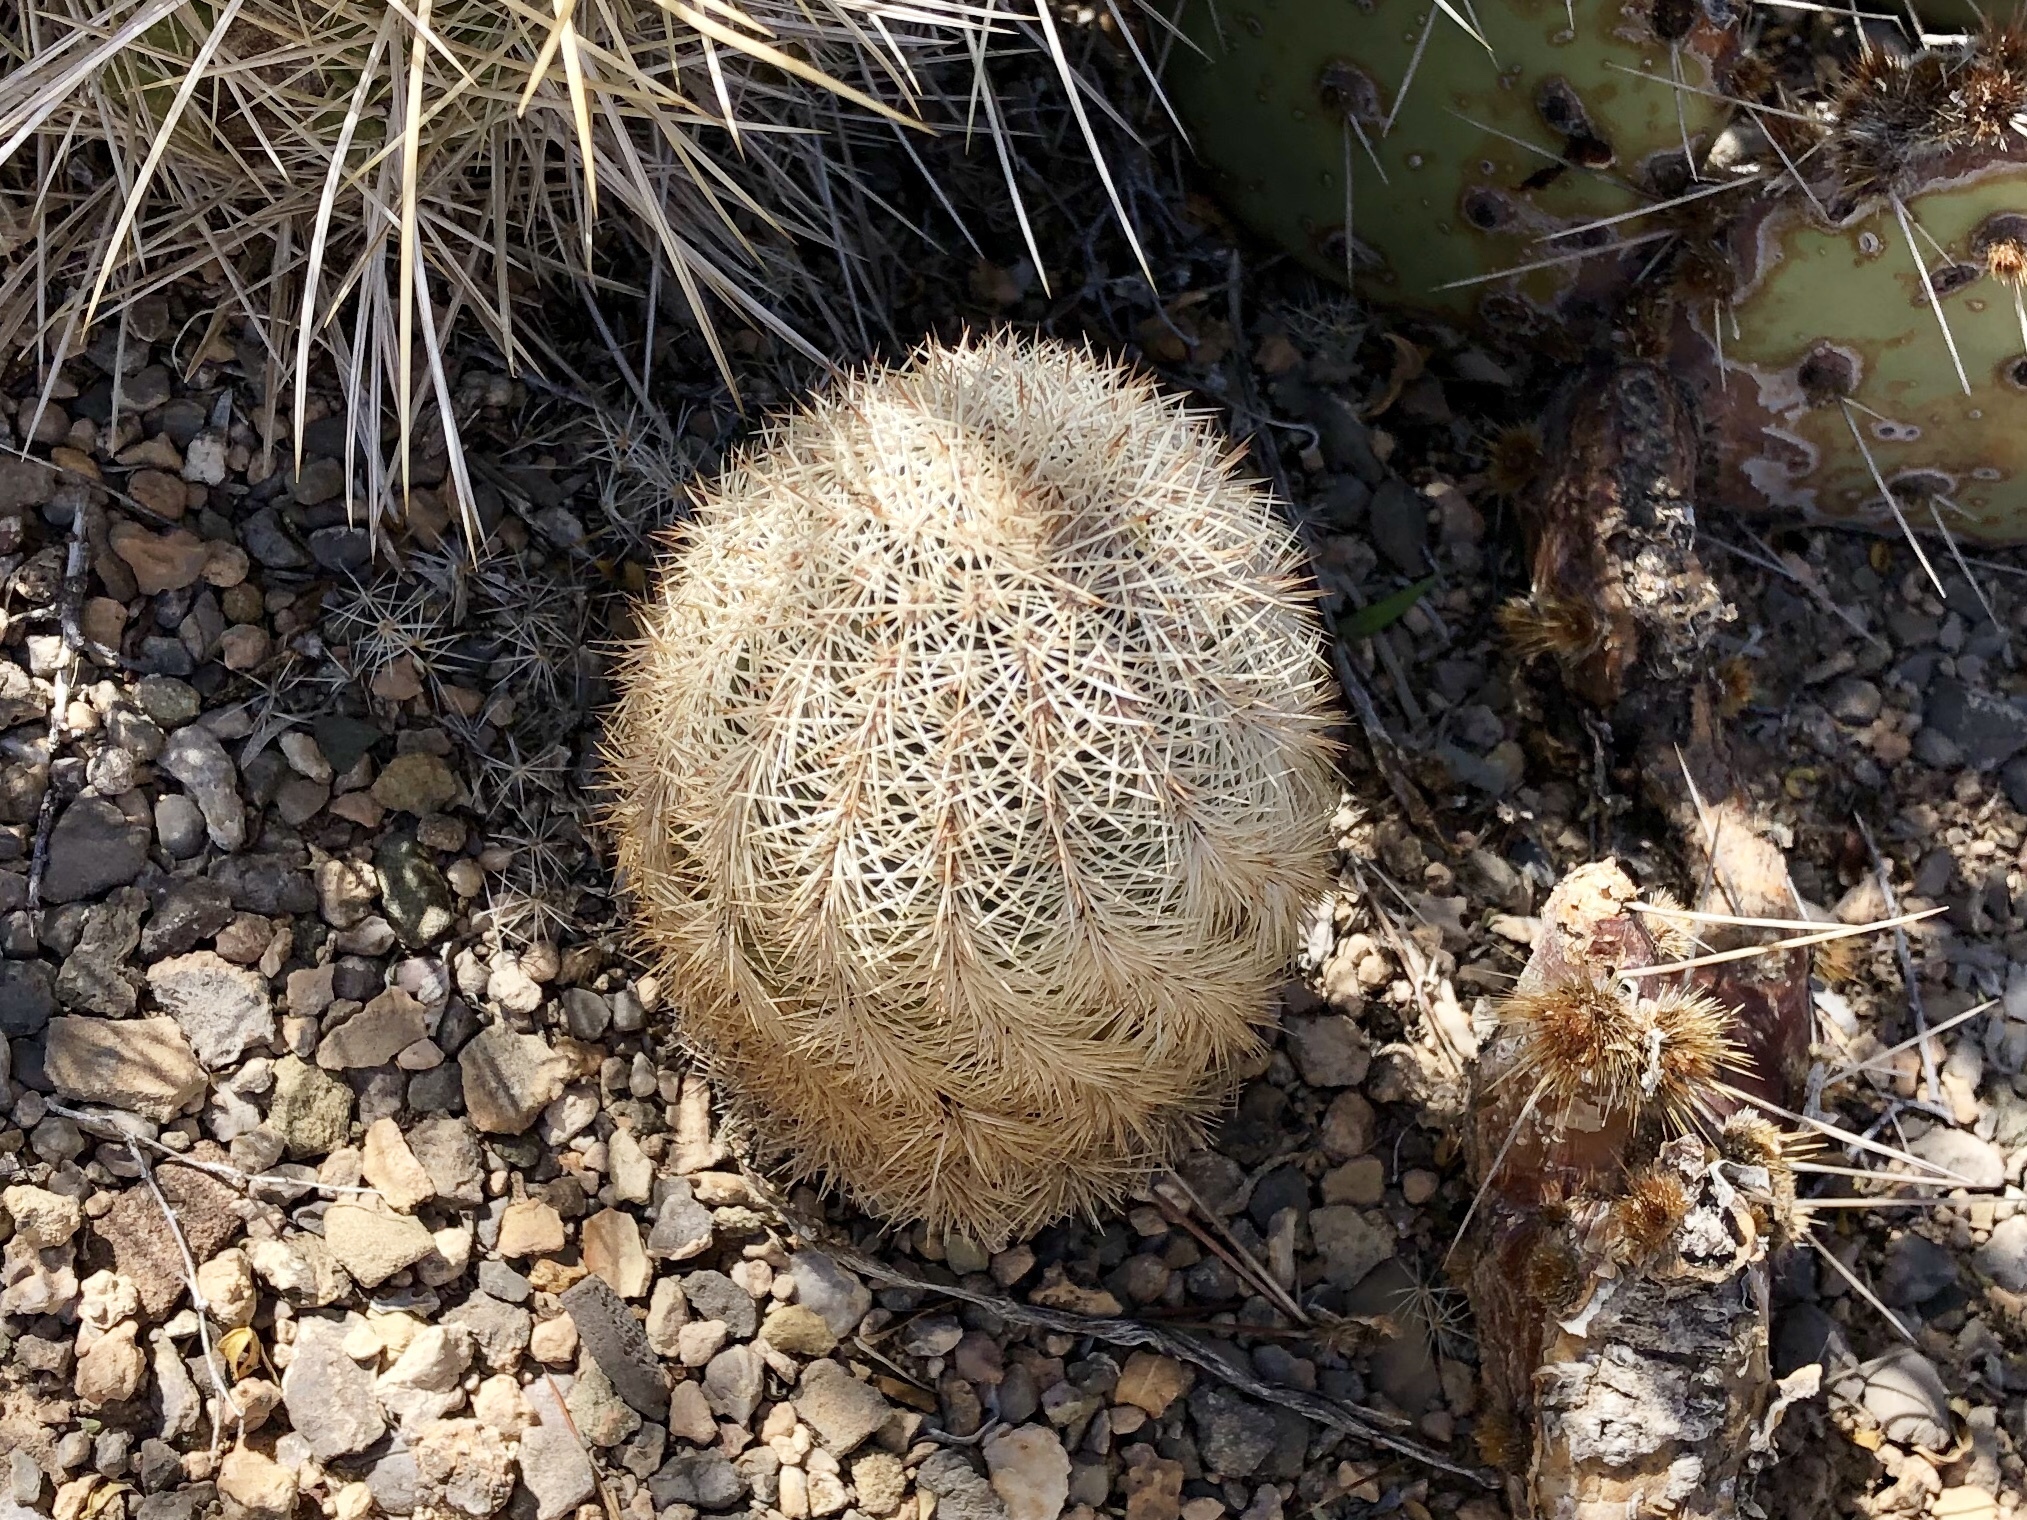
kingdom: Plantae
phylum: Tracheophyta
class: Magnoliopsida
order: Caryophyllales
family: Cactaceae
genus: Echinocereus
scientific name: Echinocereus dasyacanthus
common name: Spiny hedgehog cactus
